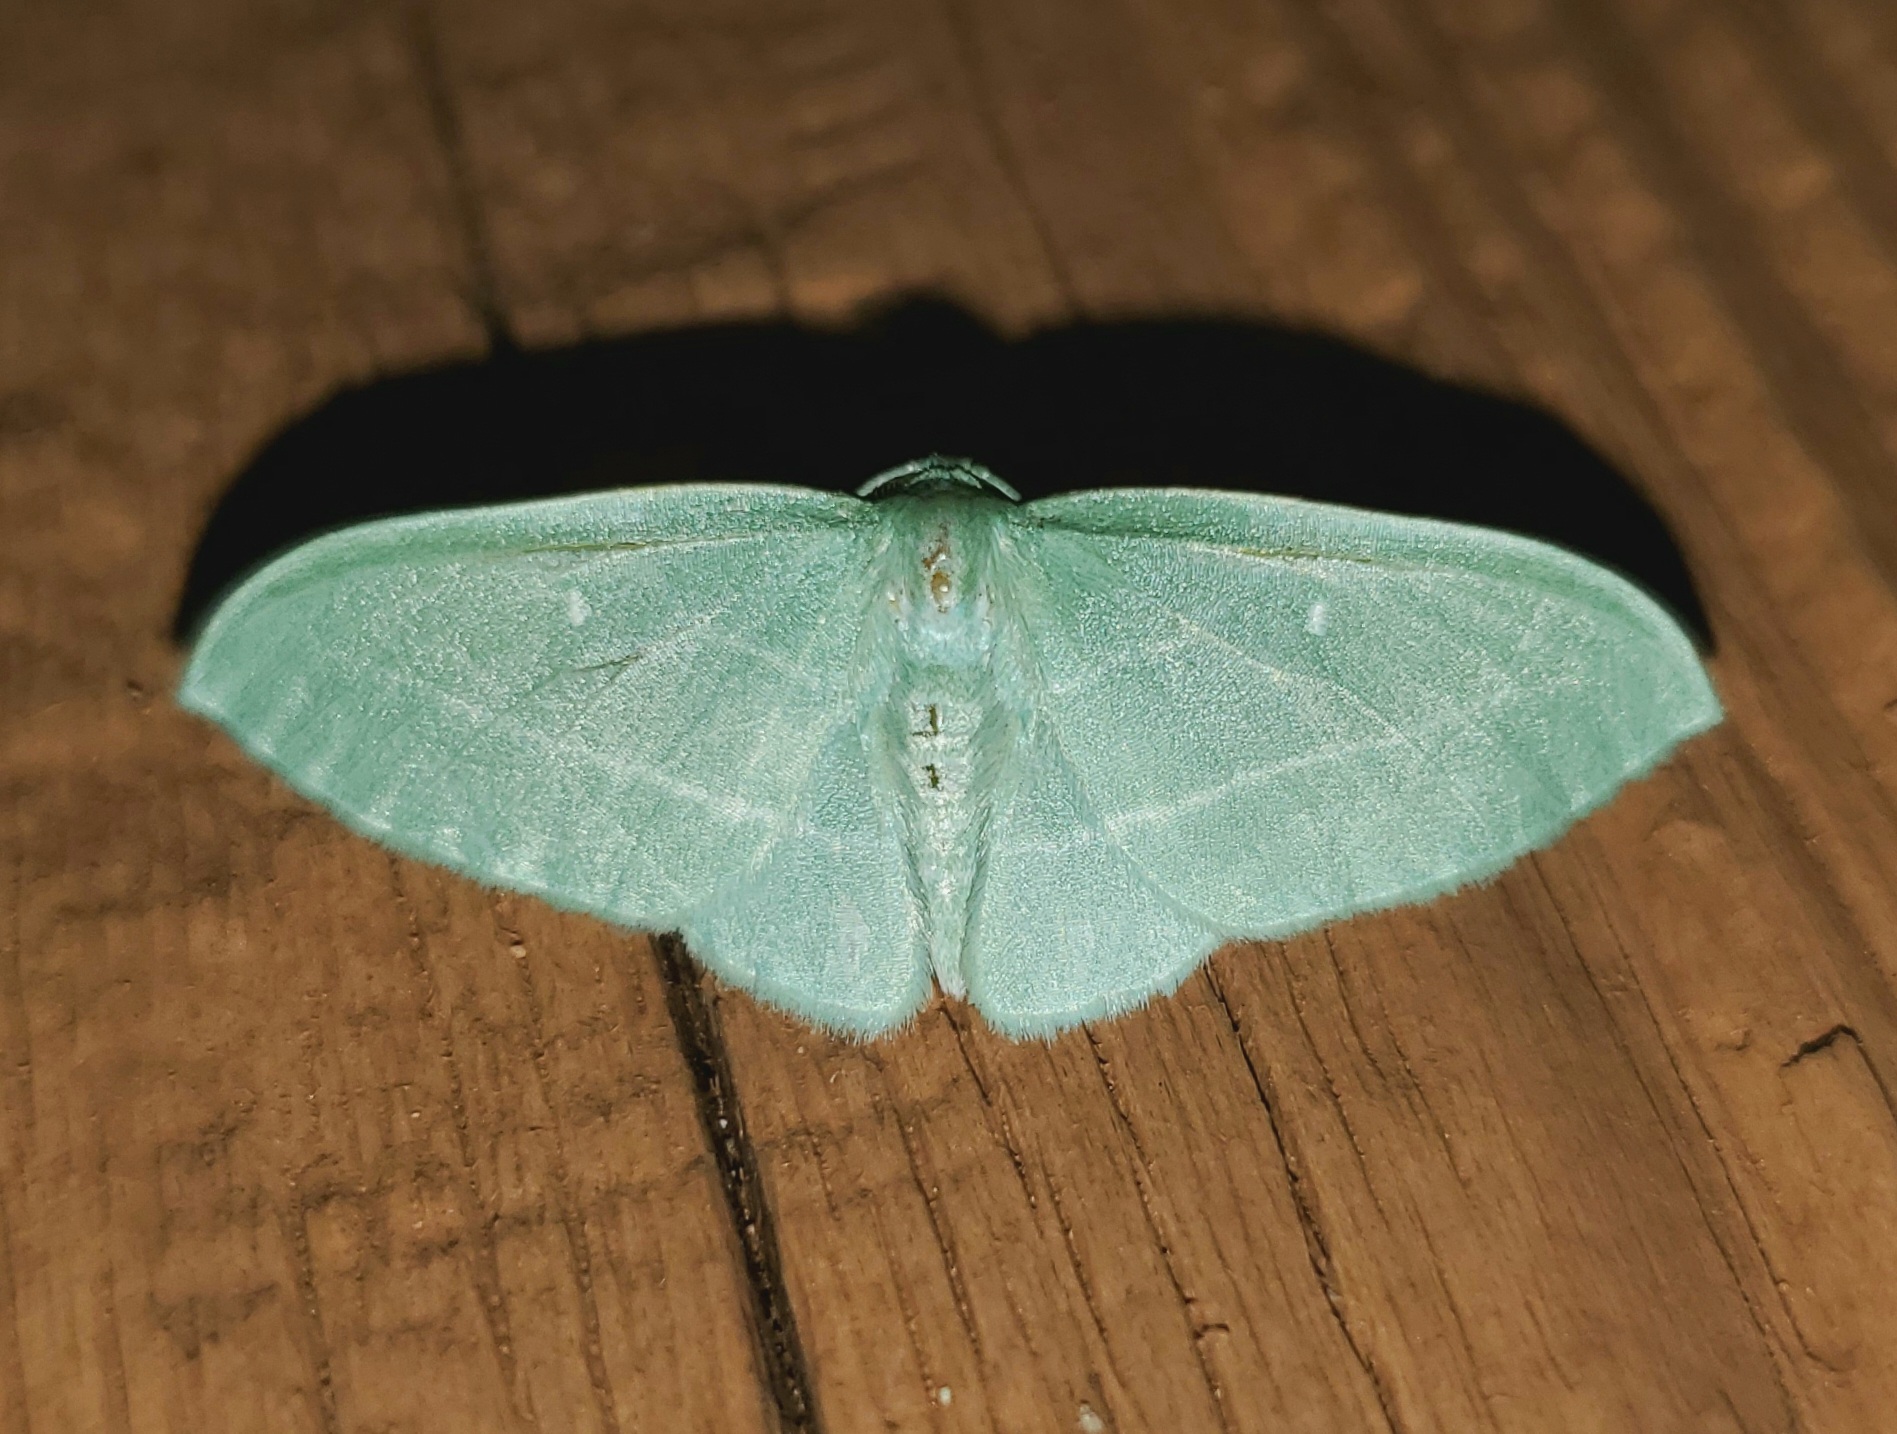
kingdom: Animalia
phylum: Arthropoda
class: Insecta
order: Lepidoptera
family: Geometridae
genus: Dyspteris
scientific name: Dyspteris abortivaria
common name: Bad-wing
